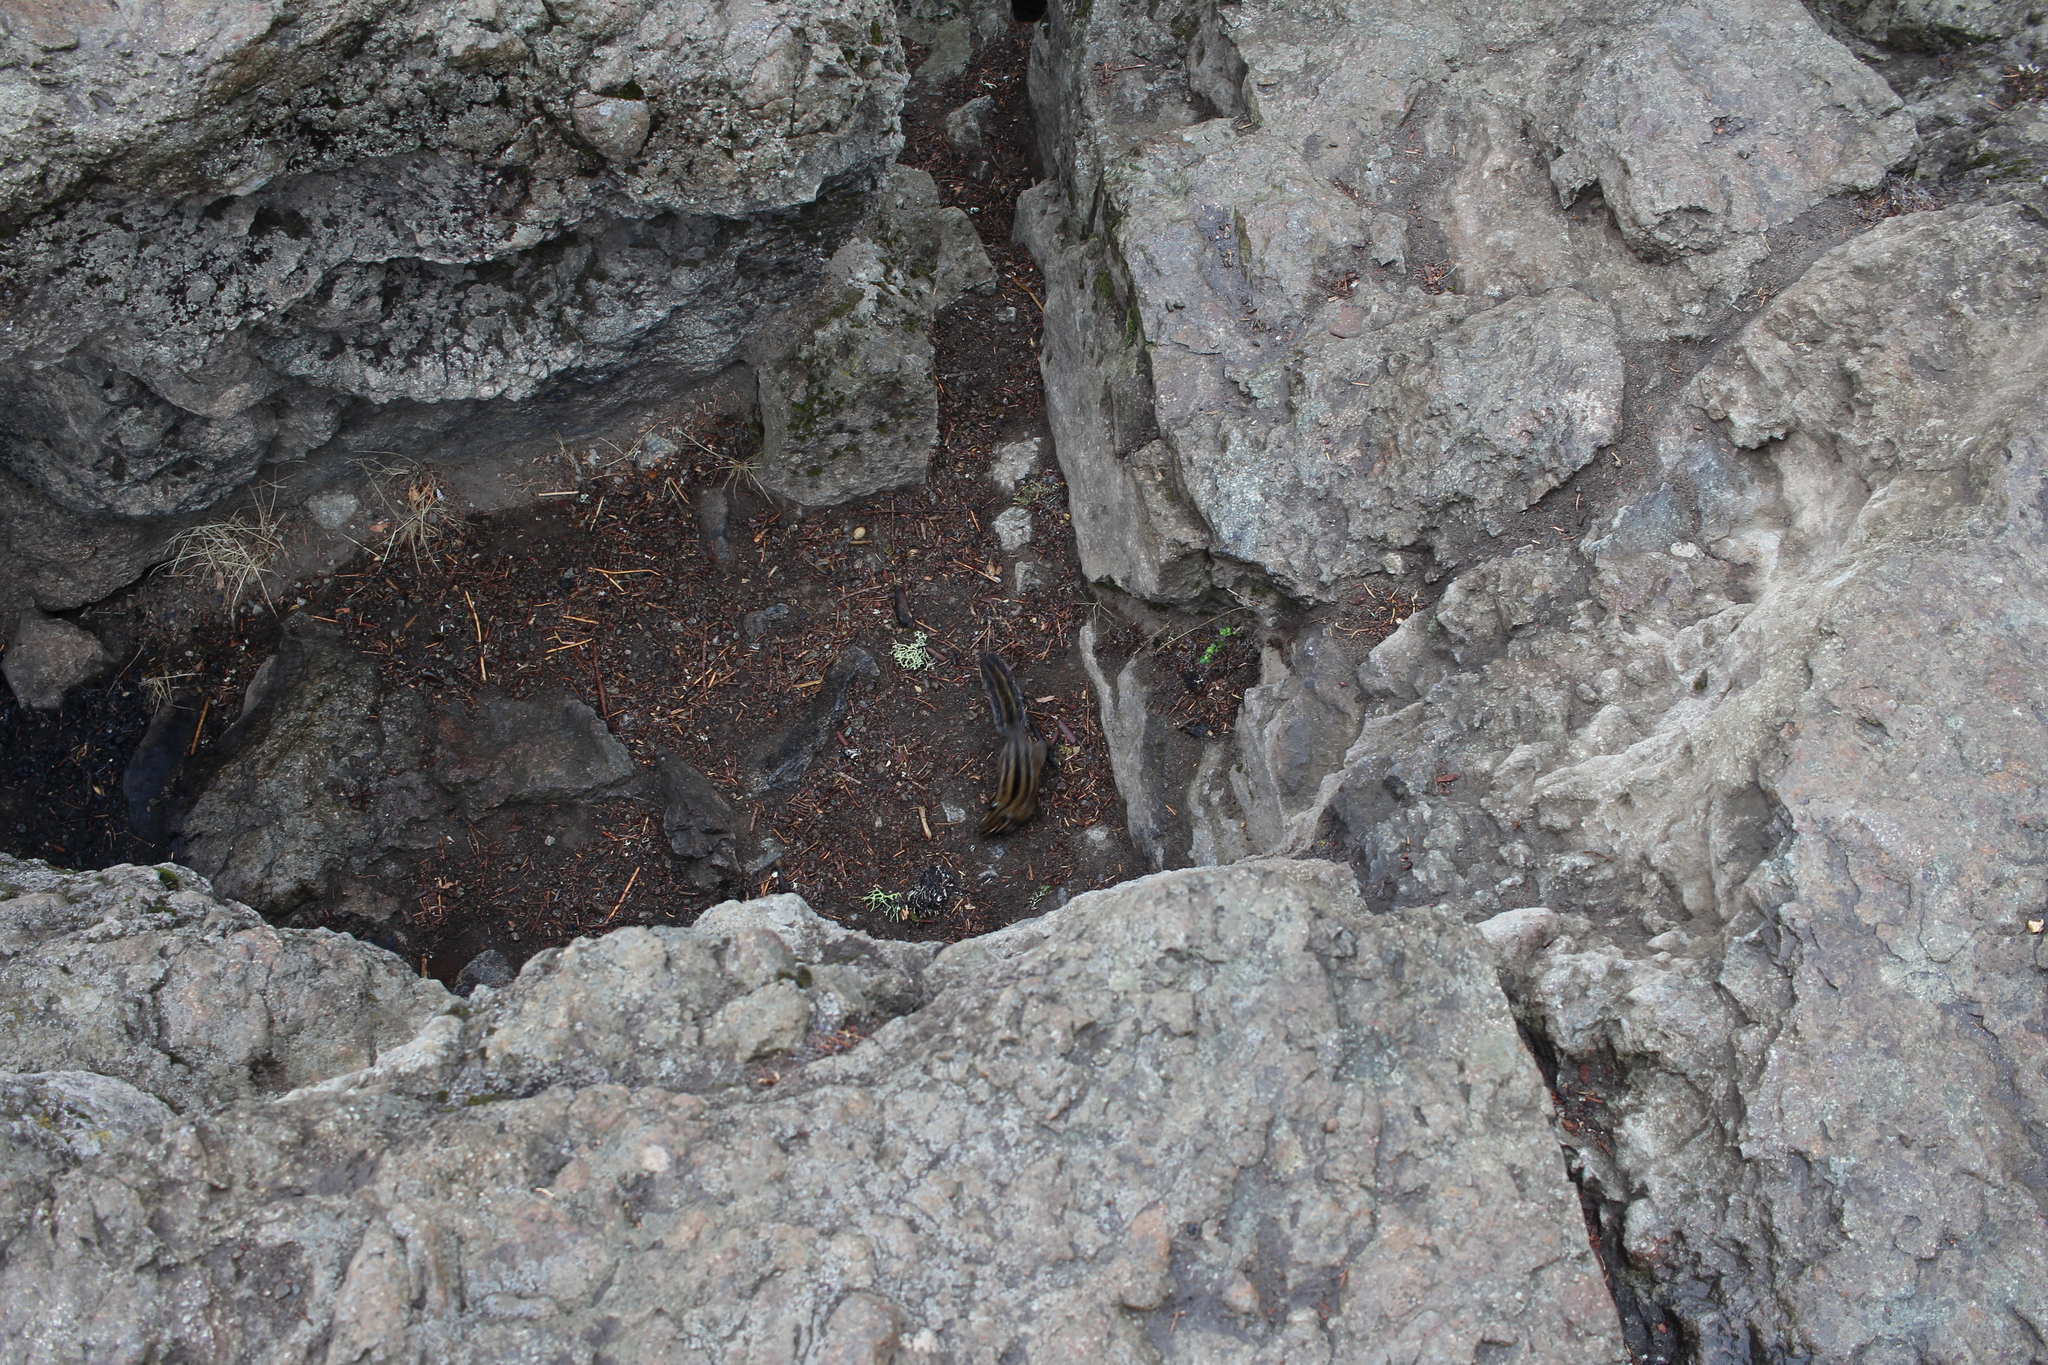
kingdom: Animalia
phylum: Chordata
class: Mammalia
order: Rodentia
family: Sciuridae
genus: Tamias
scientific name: Tamias townsendii
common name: Townsend's chipmunk
